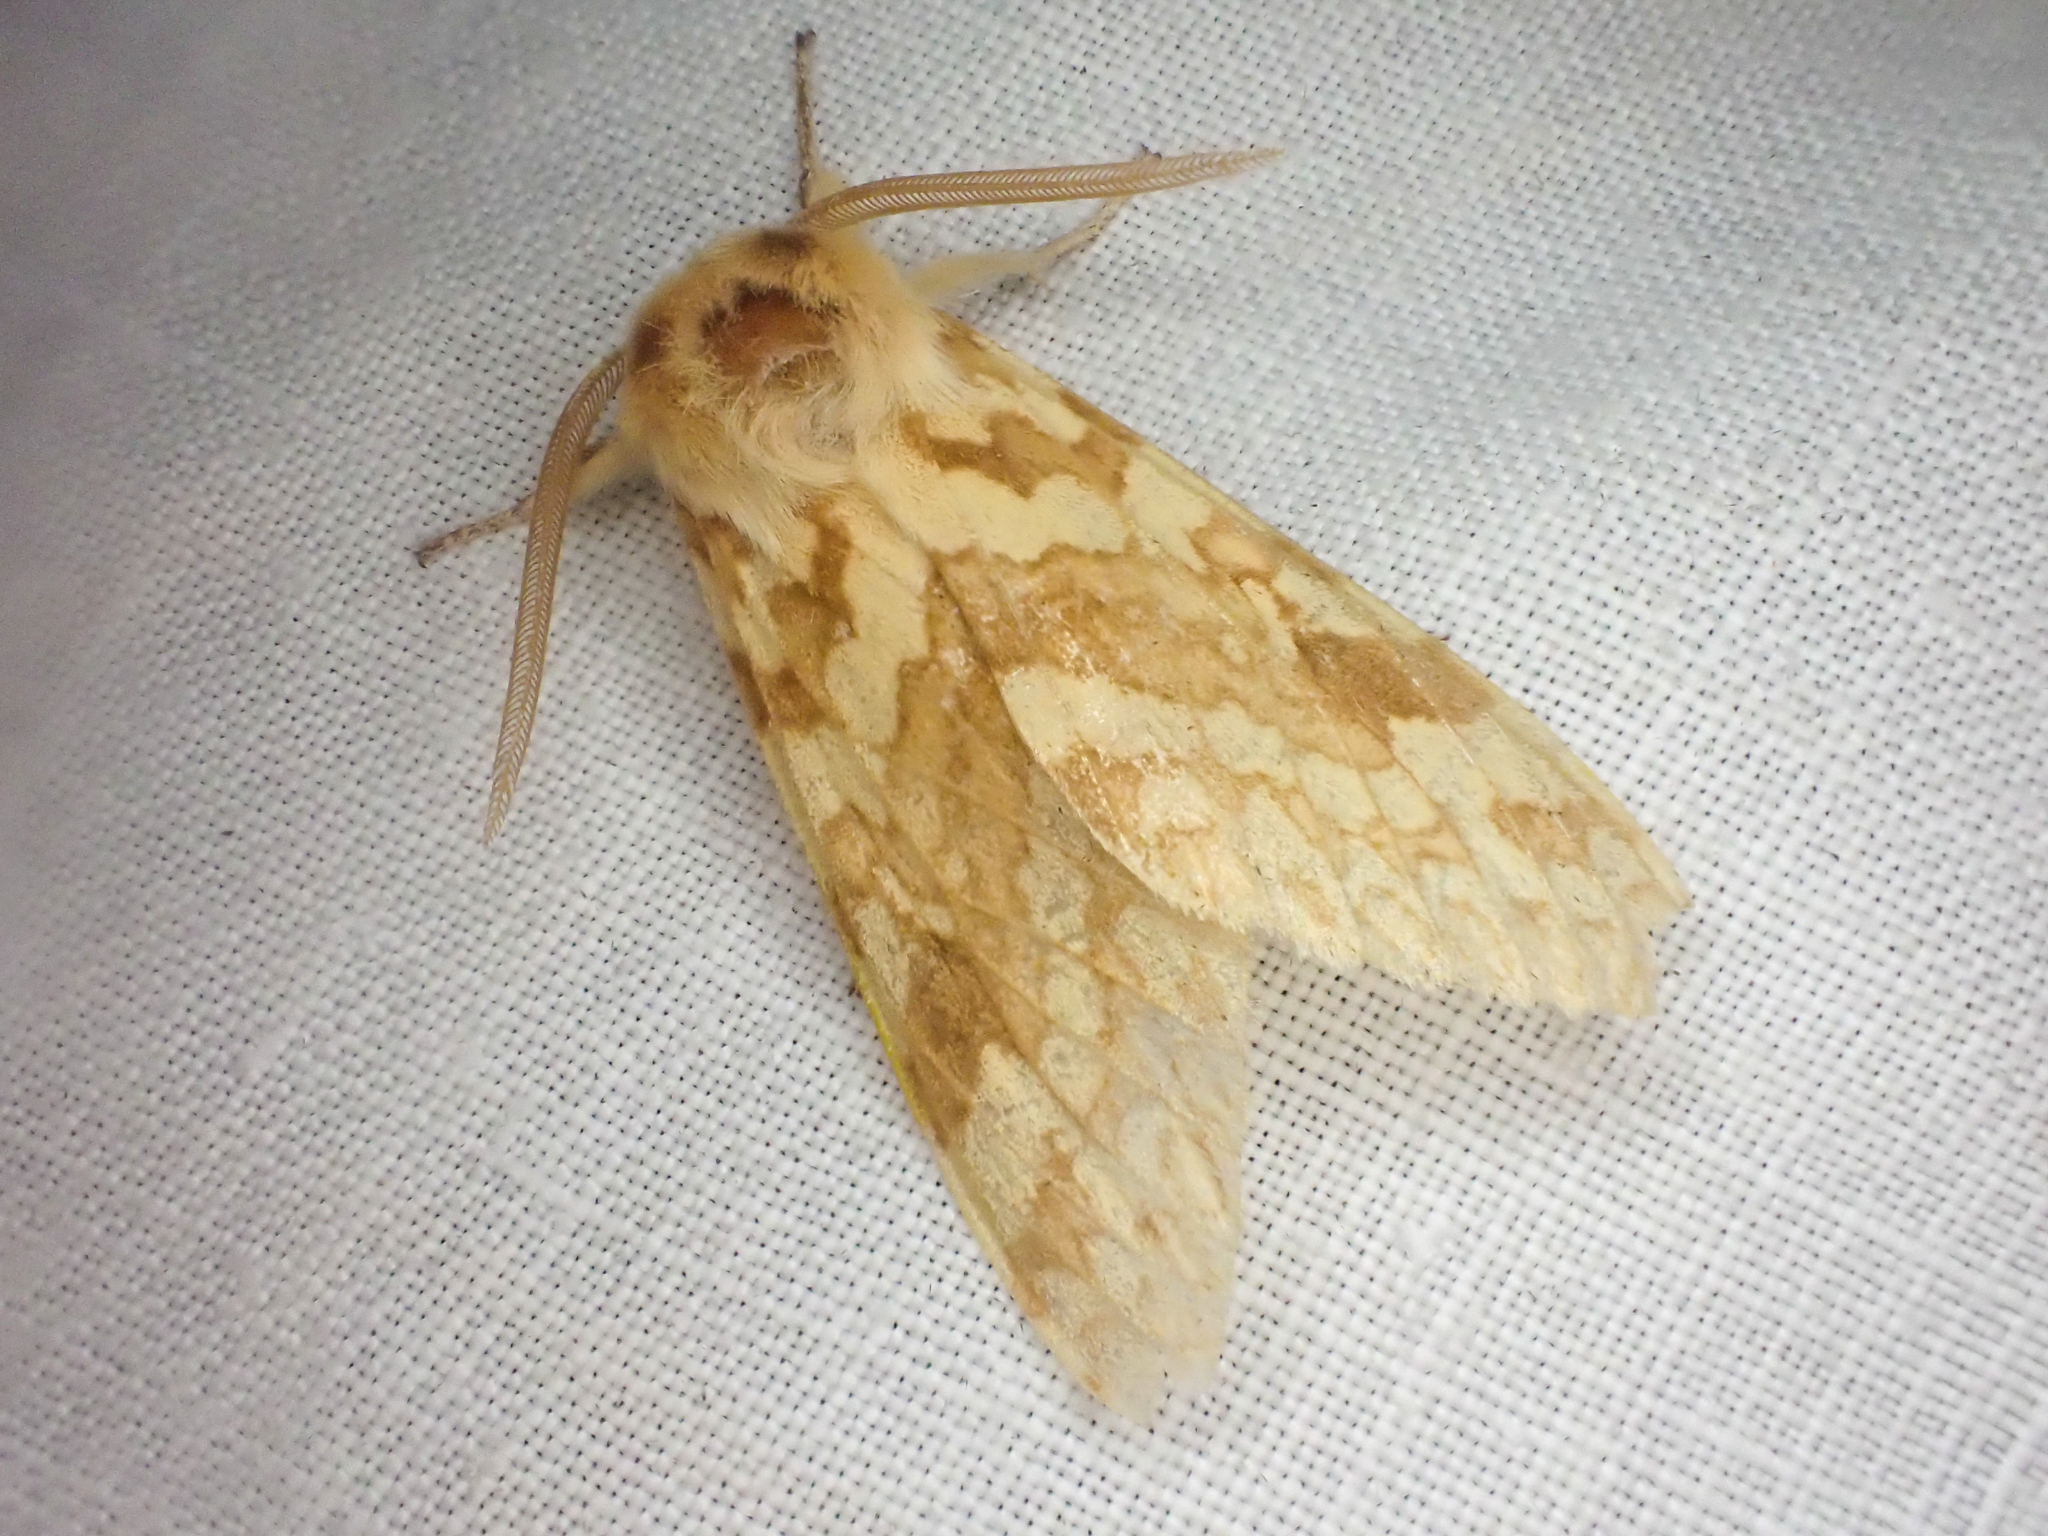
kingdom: Animalia
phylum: Arthropoda
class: Insecta
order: Lepidoptera
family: Erebidae
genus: Lophocampa
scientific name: Lophocampa maculata
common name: Spotted tussock moth
